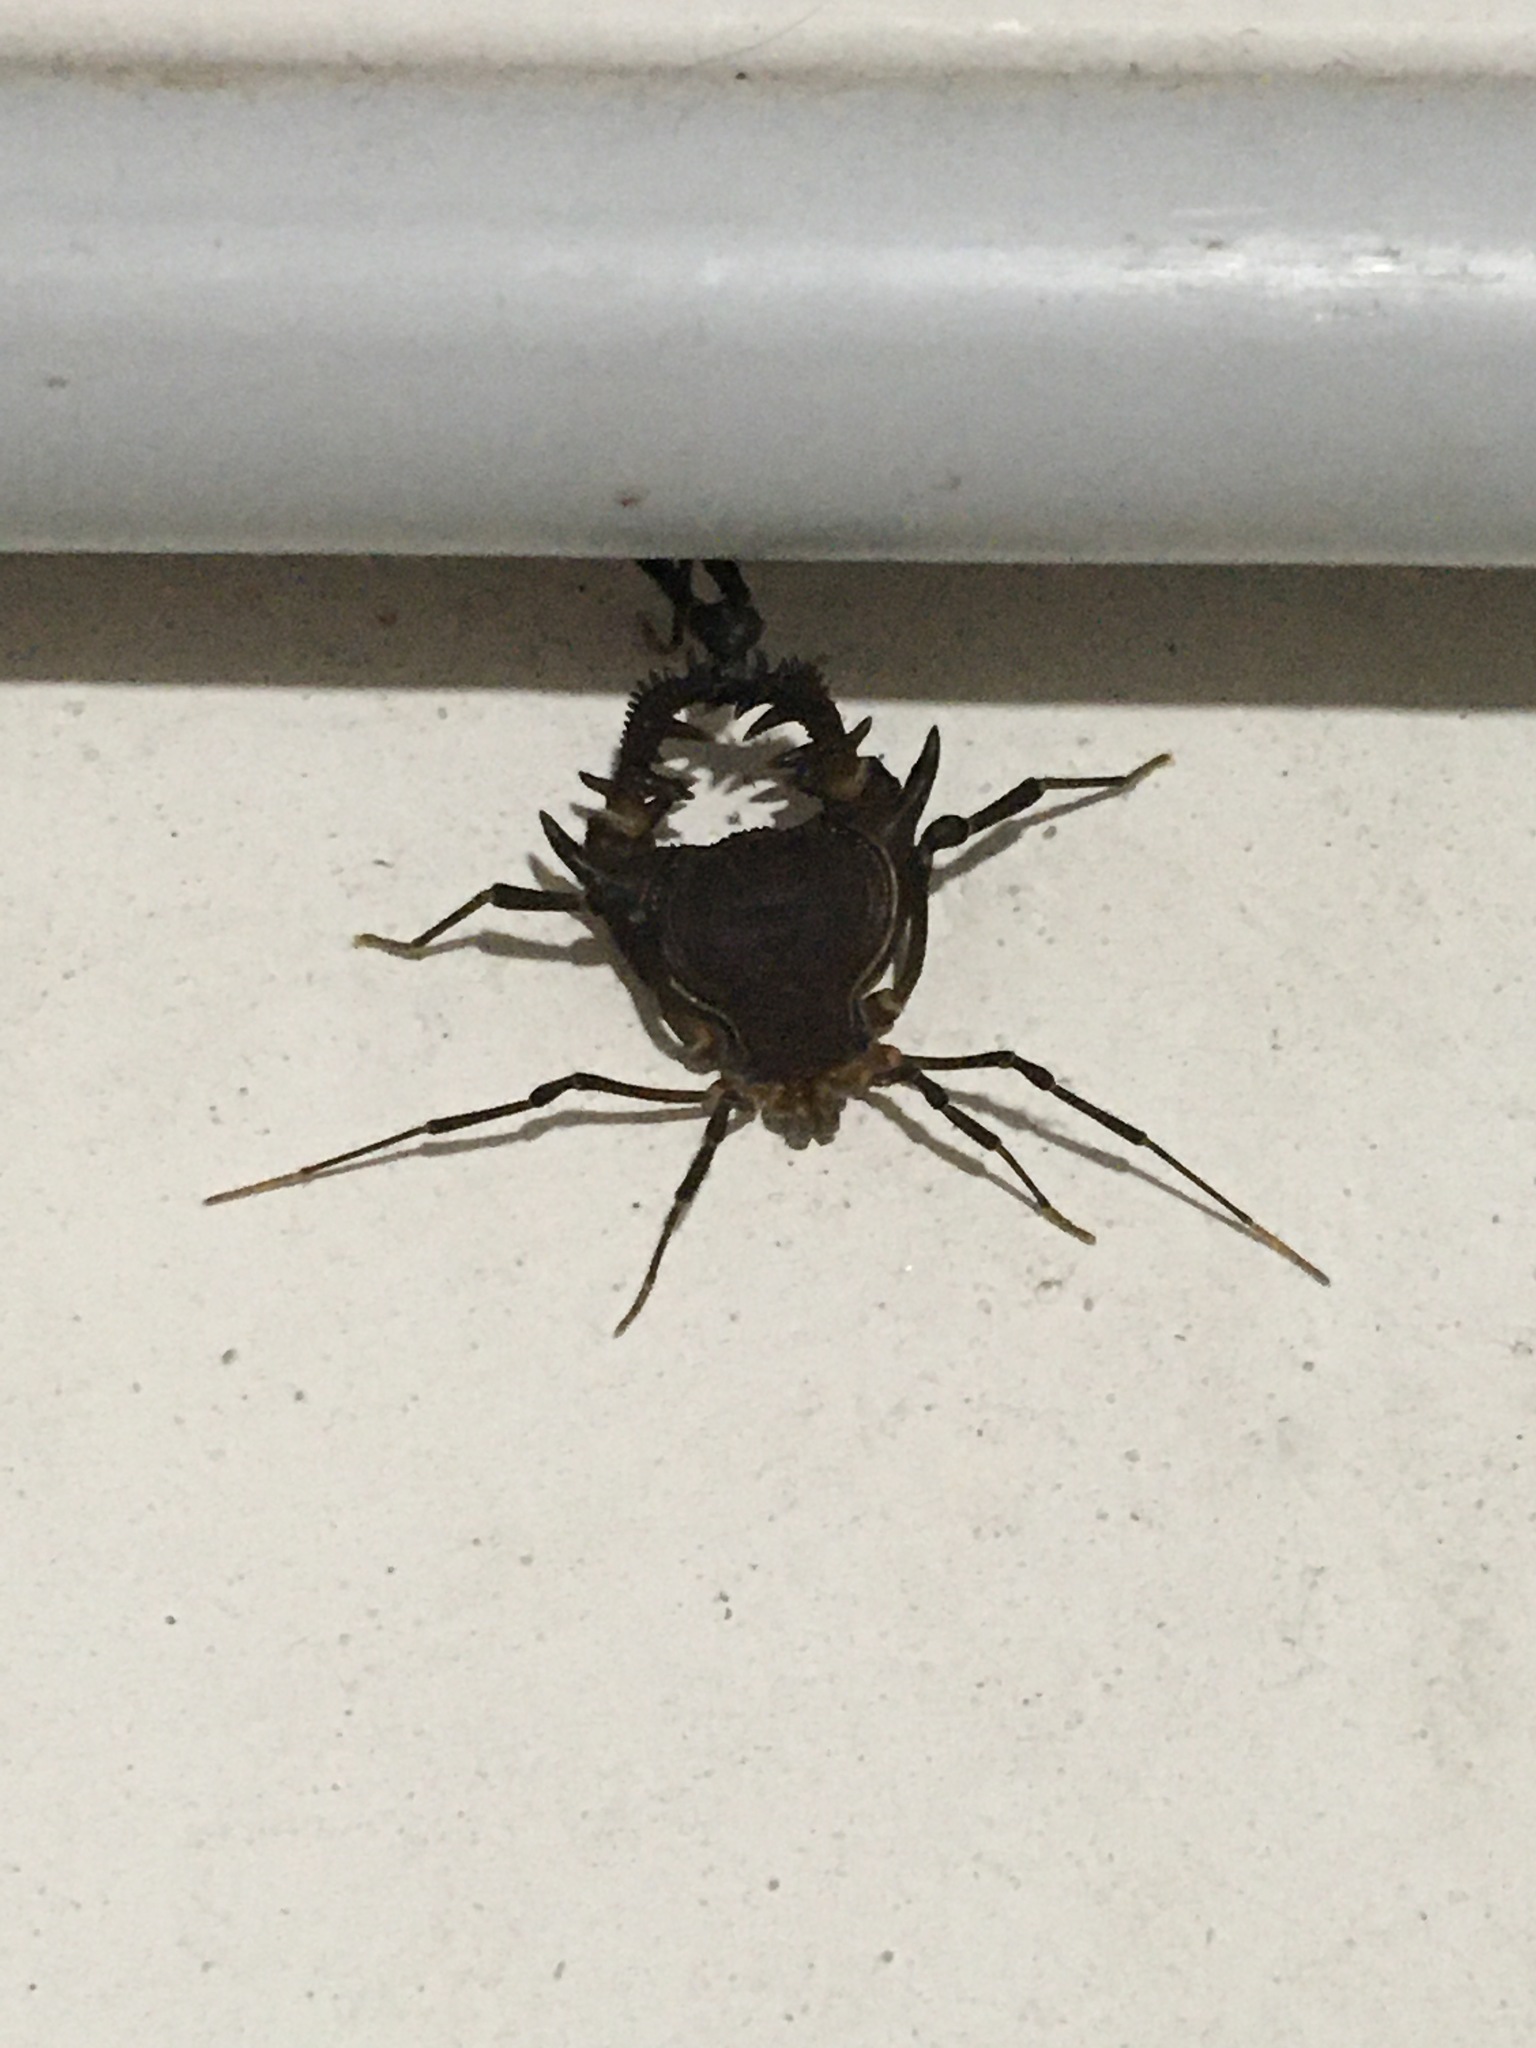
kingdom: Animalia
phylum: Arthropoda
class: Arachnida
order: Opiliones
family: Gonyleptidae
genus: Pachyloidellus
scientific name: Pachyloidellus goliath
